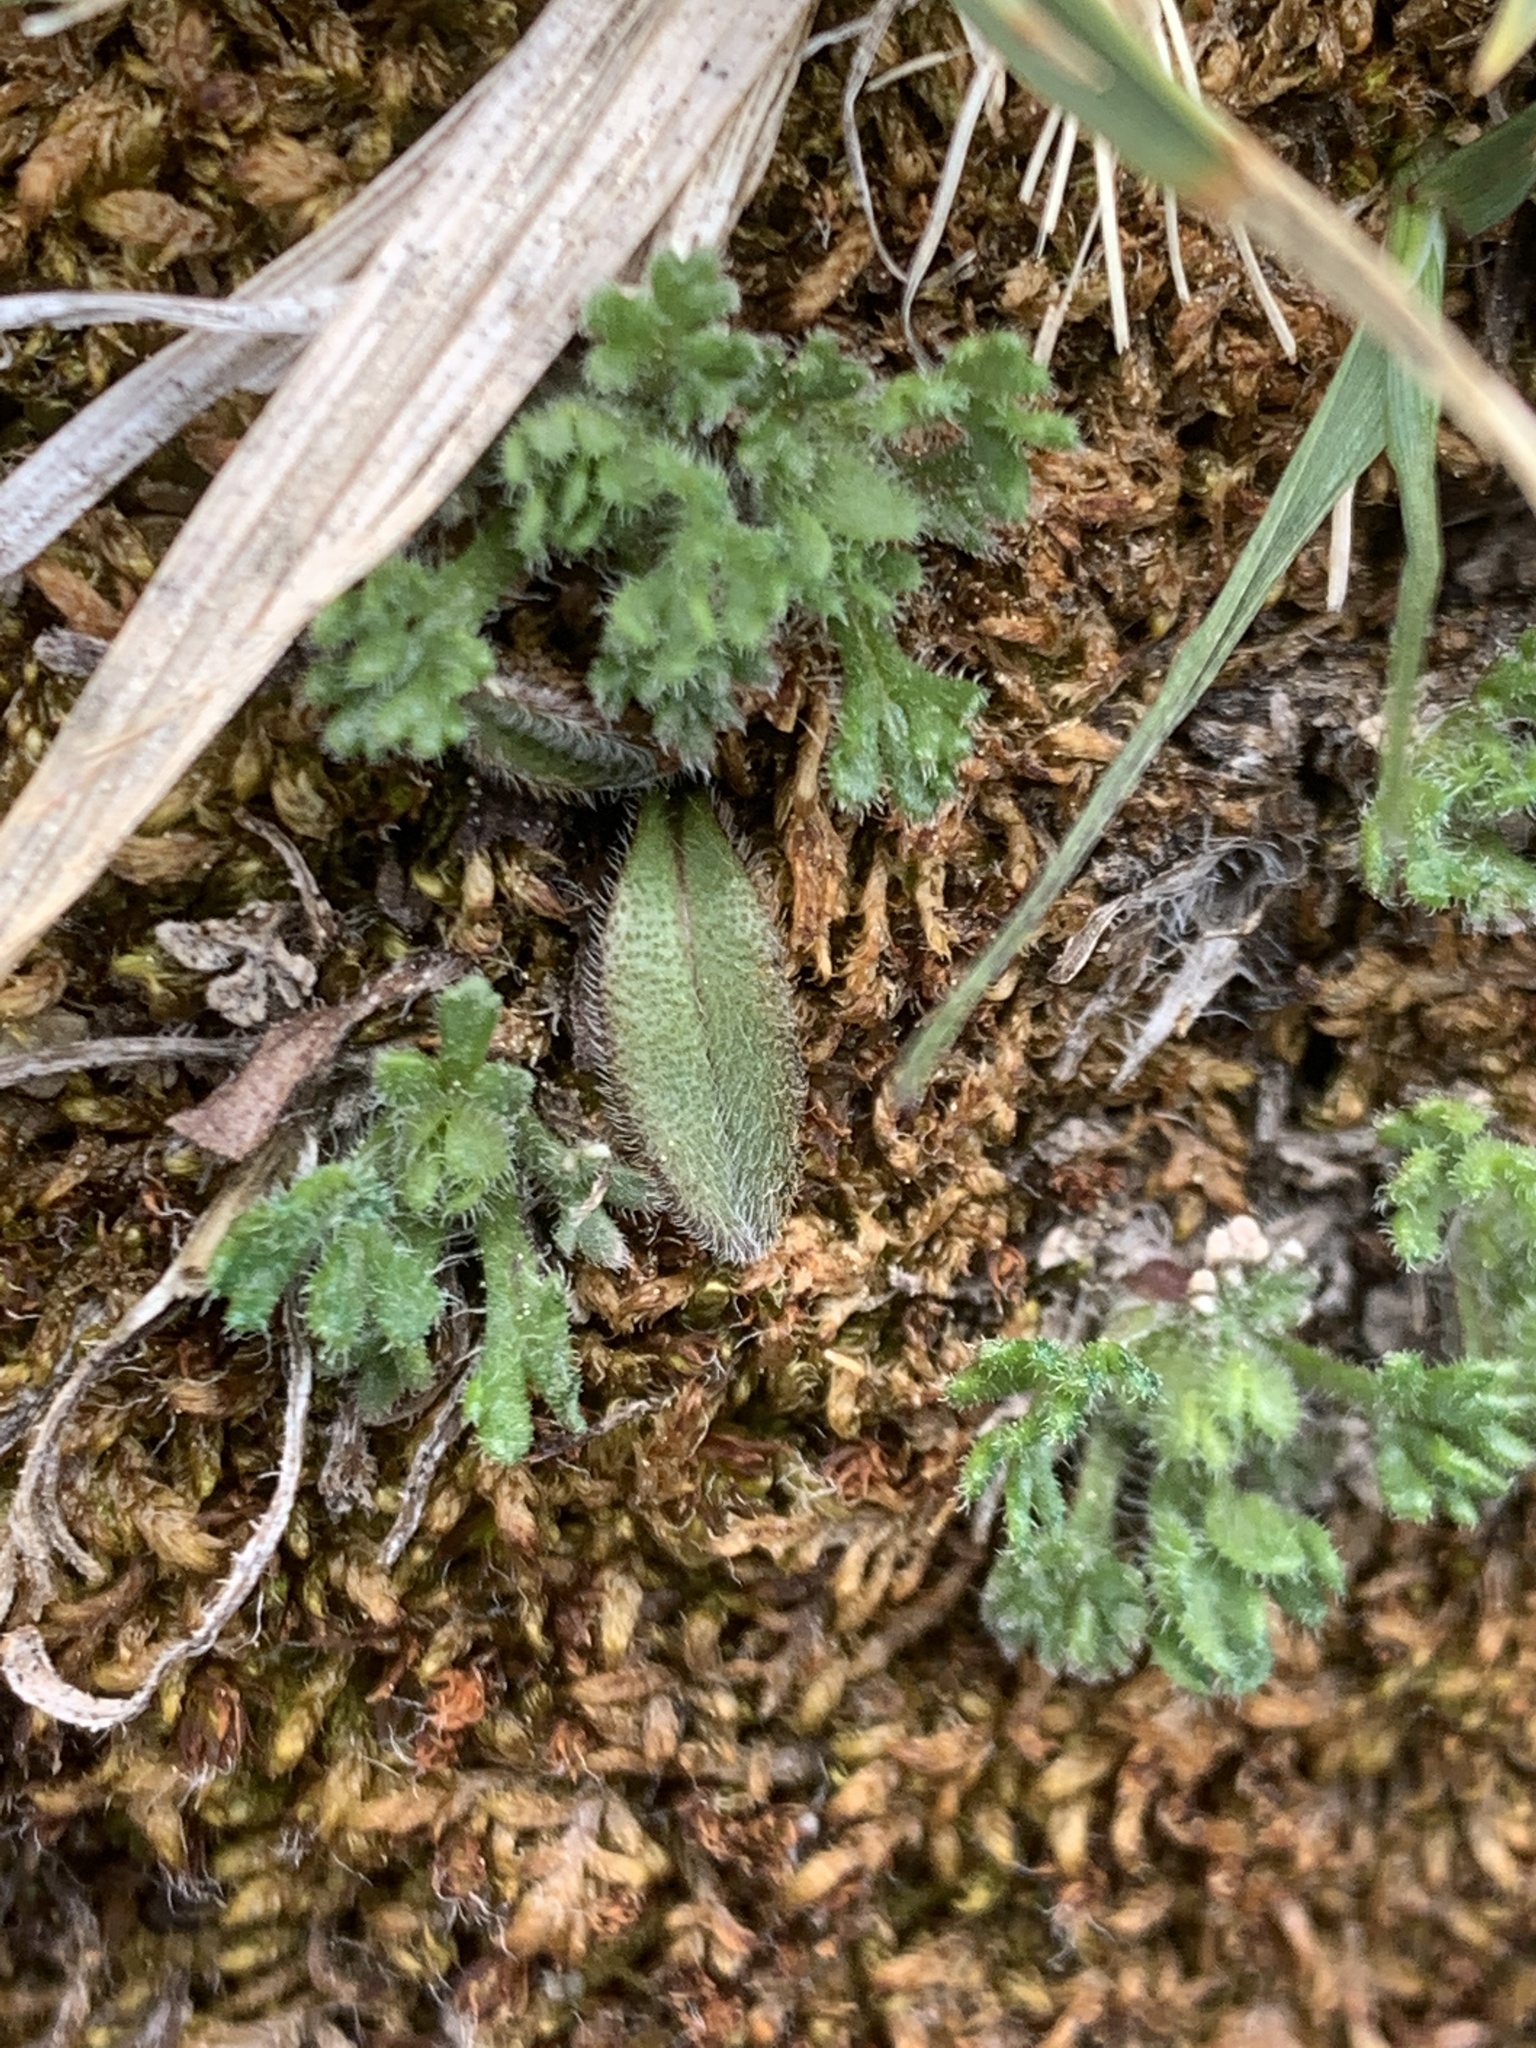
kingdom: Plantae
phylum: Tracheophyta
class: Magnoliopsida
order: Asterales
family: Asteraceae
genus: Erigeron
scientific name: Erigeron compositus
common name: Dwarf mountain fleabane
